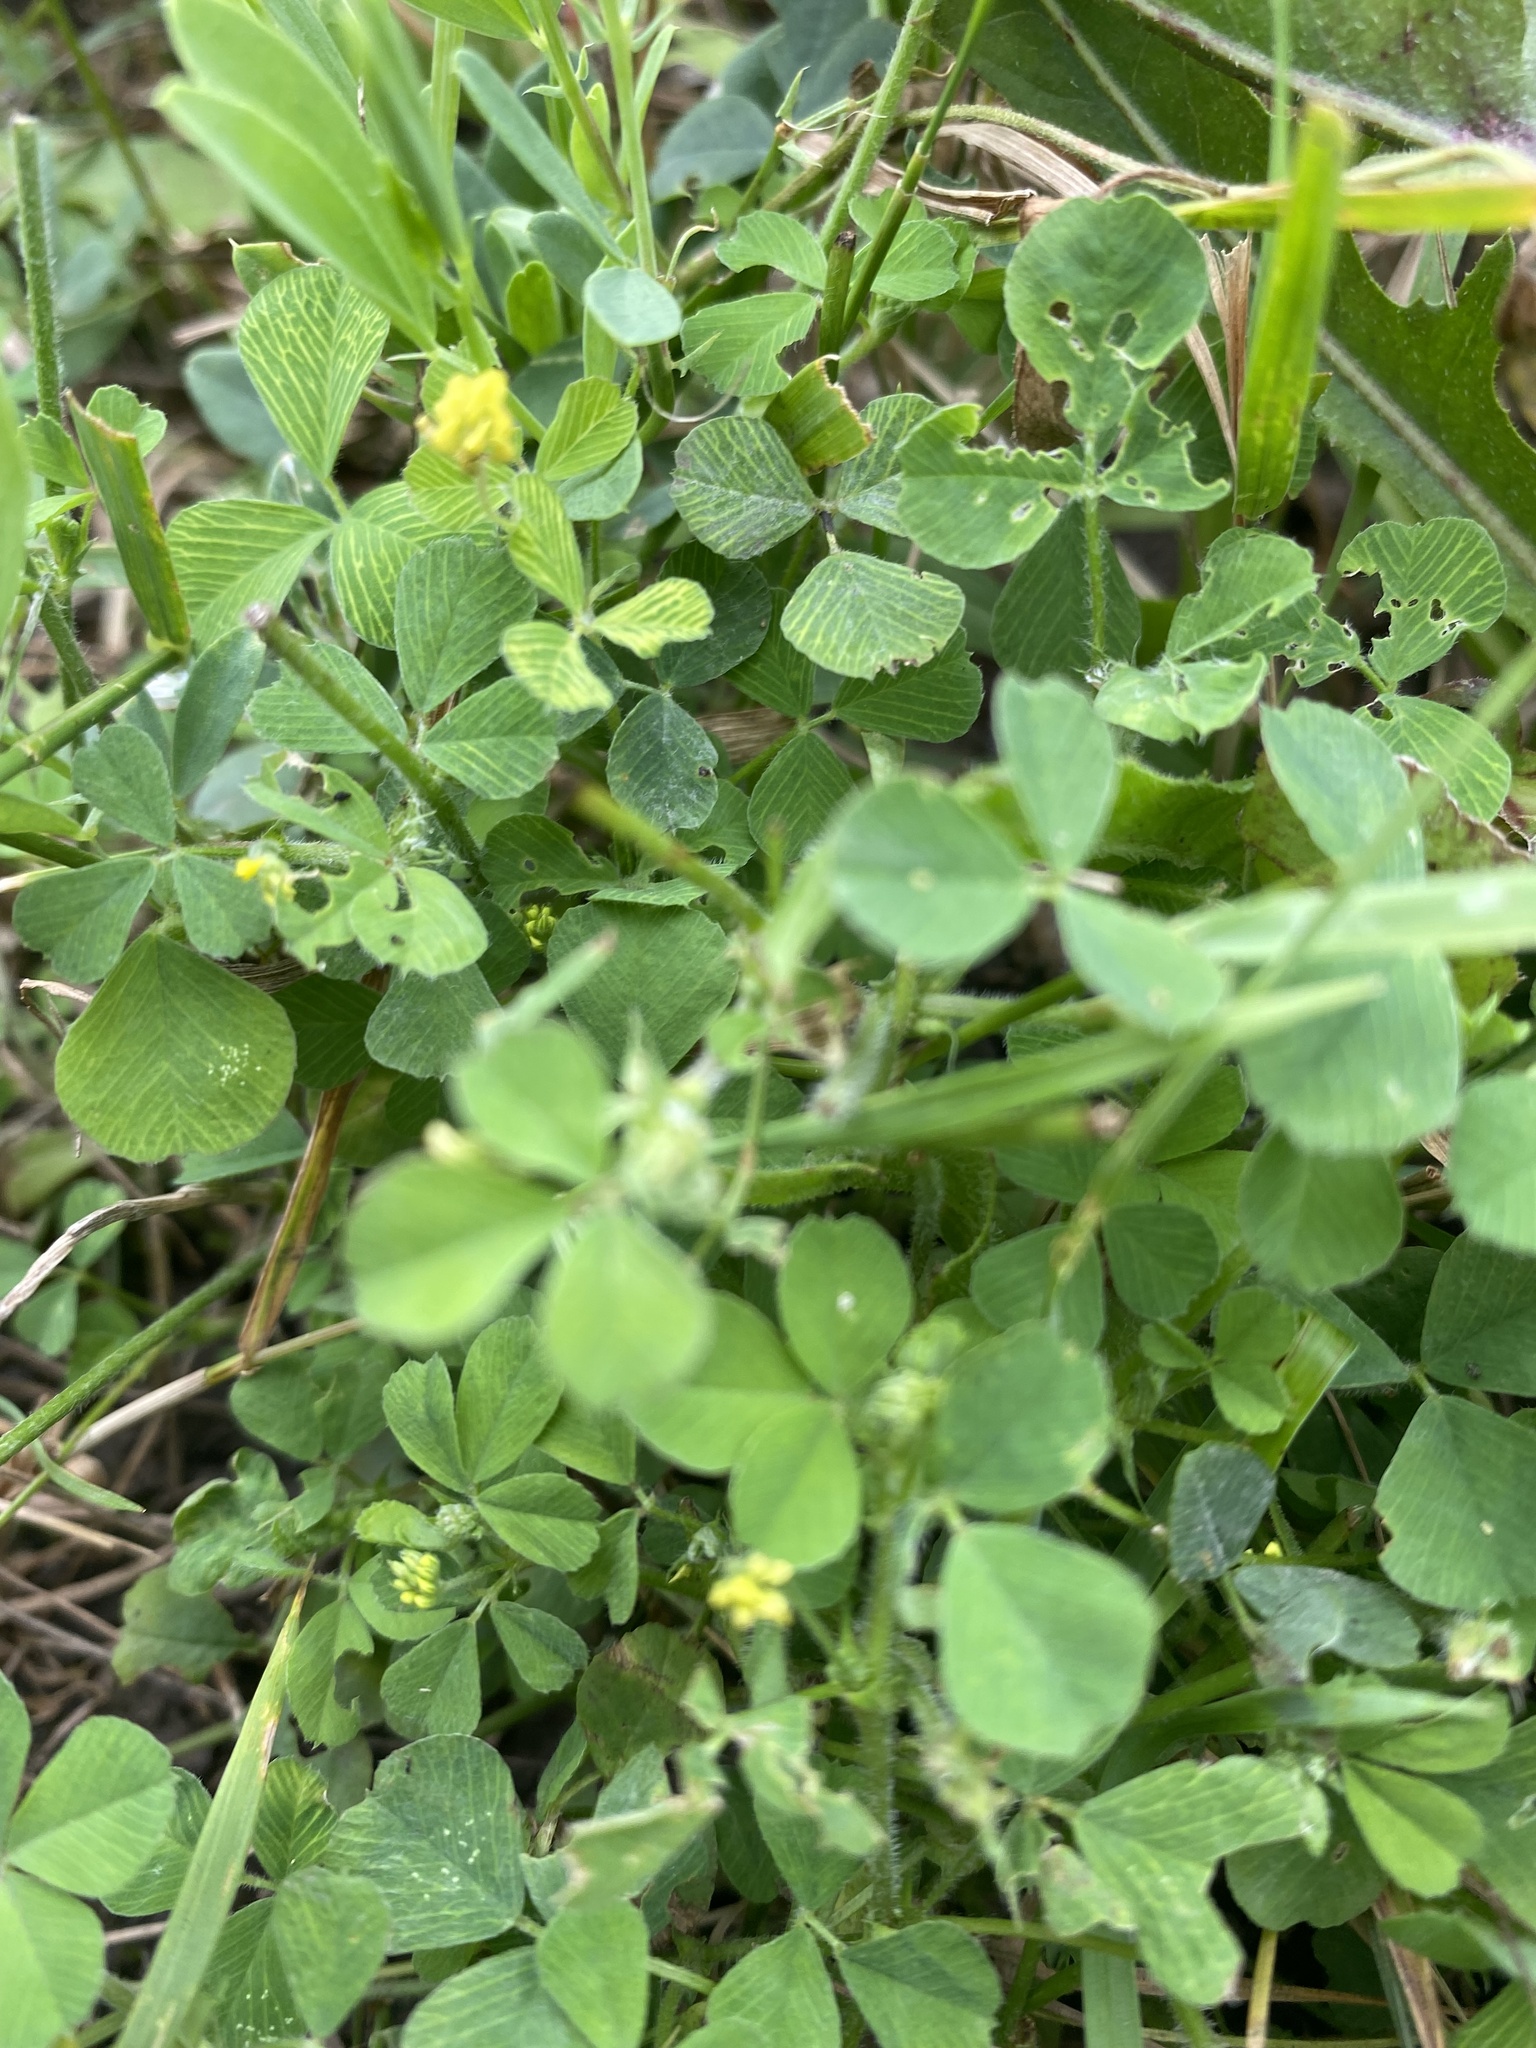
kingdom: Plantae
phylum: Tracheophyta
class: Magnoliopsida
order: Fabales
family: Fabaceae
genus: Medicago
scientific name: Medicago lupulina
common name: Black medick
